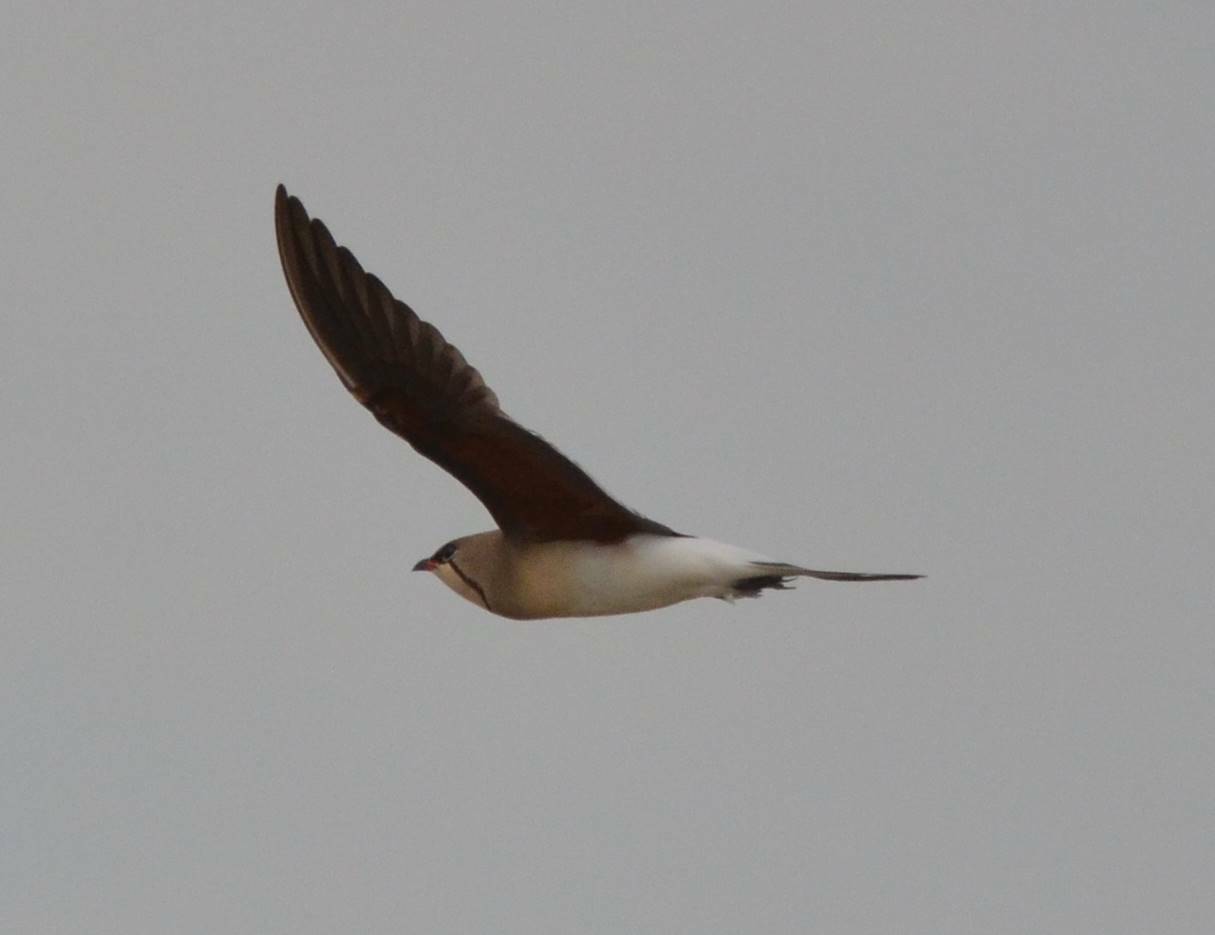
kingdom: Animalia
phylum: Chordata
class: Aves
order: Charadriiformes
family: Glareolidae
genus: Glareola
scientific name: Glareola pratincola
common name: Collared pratincole
